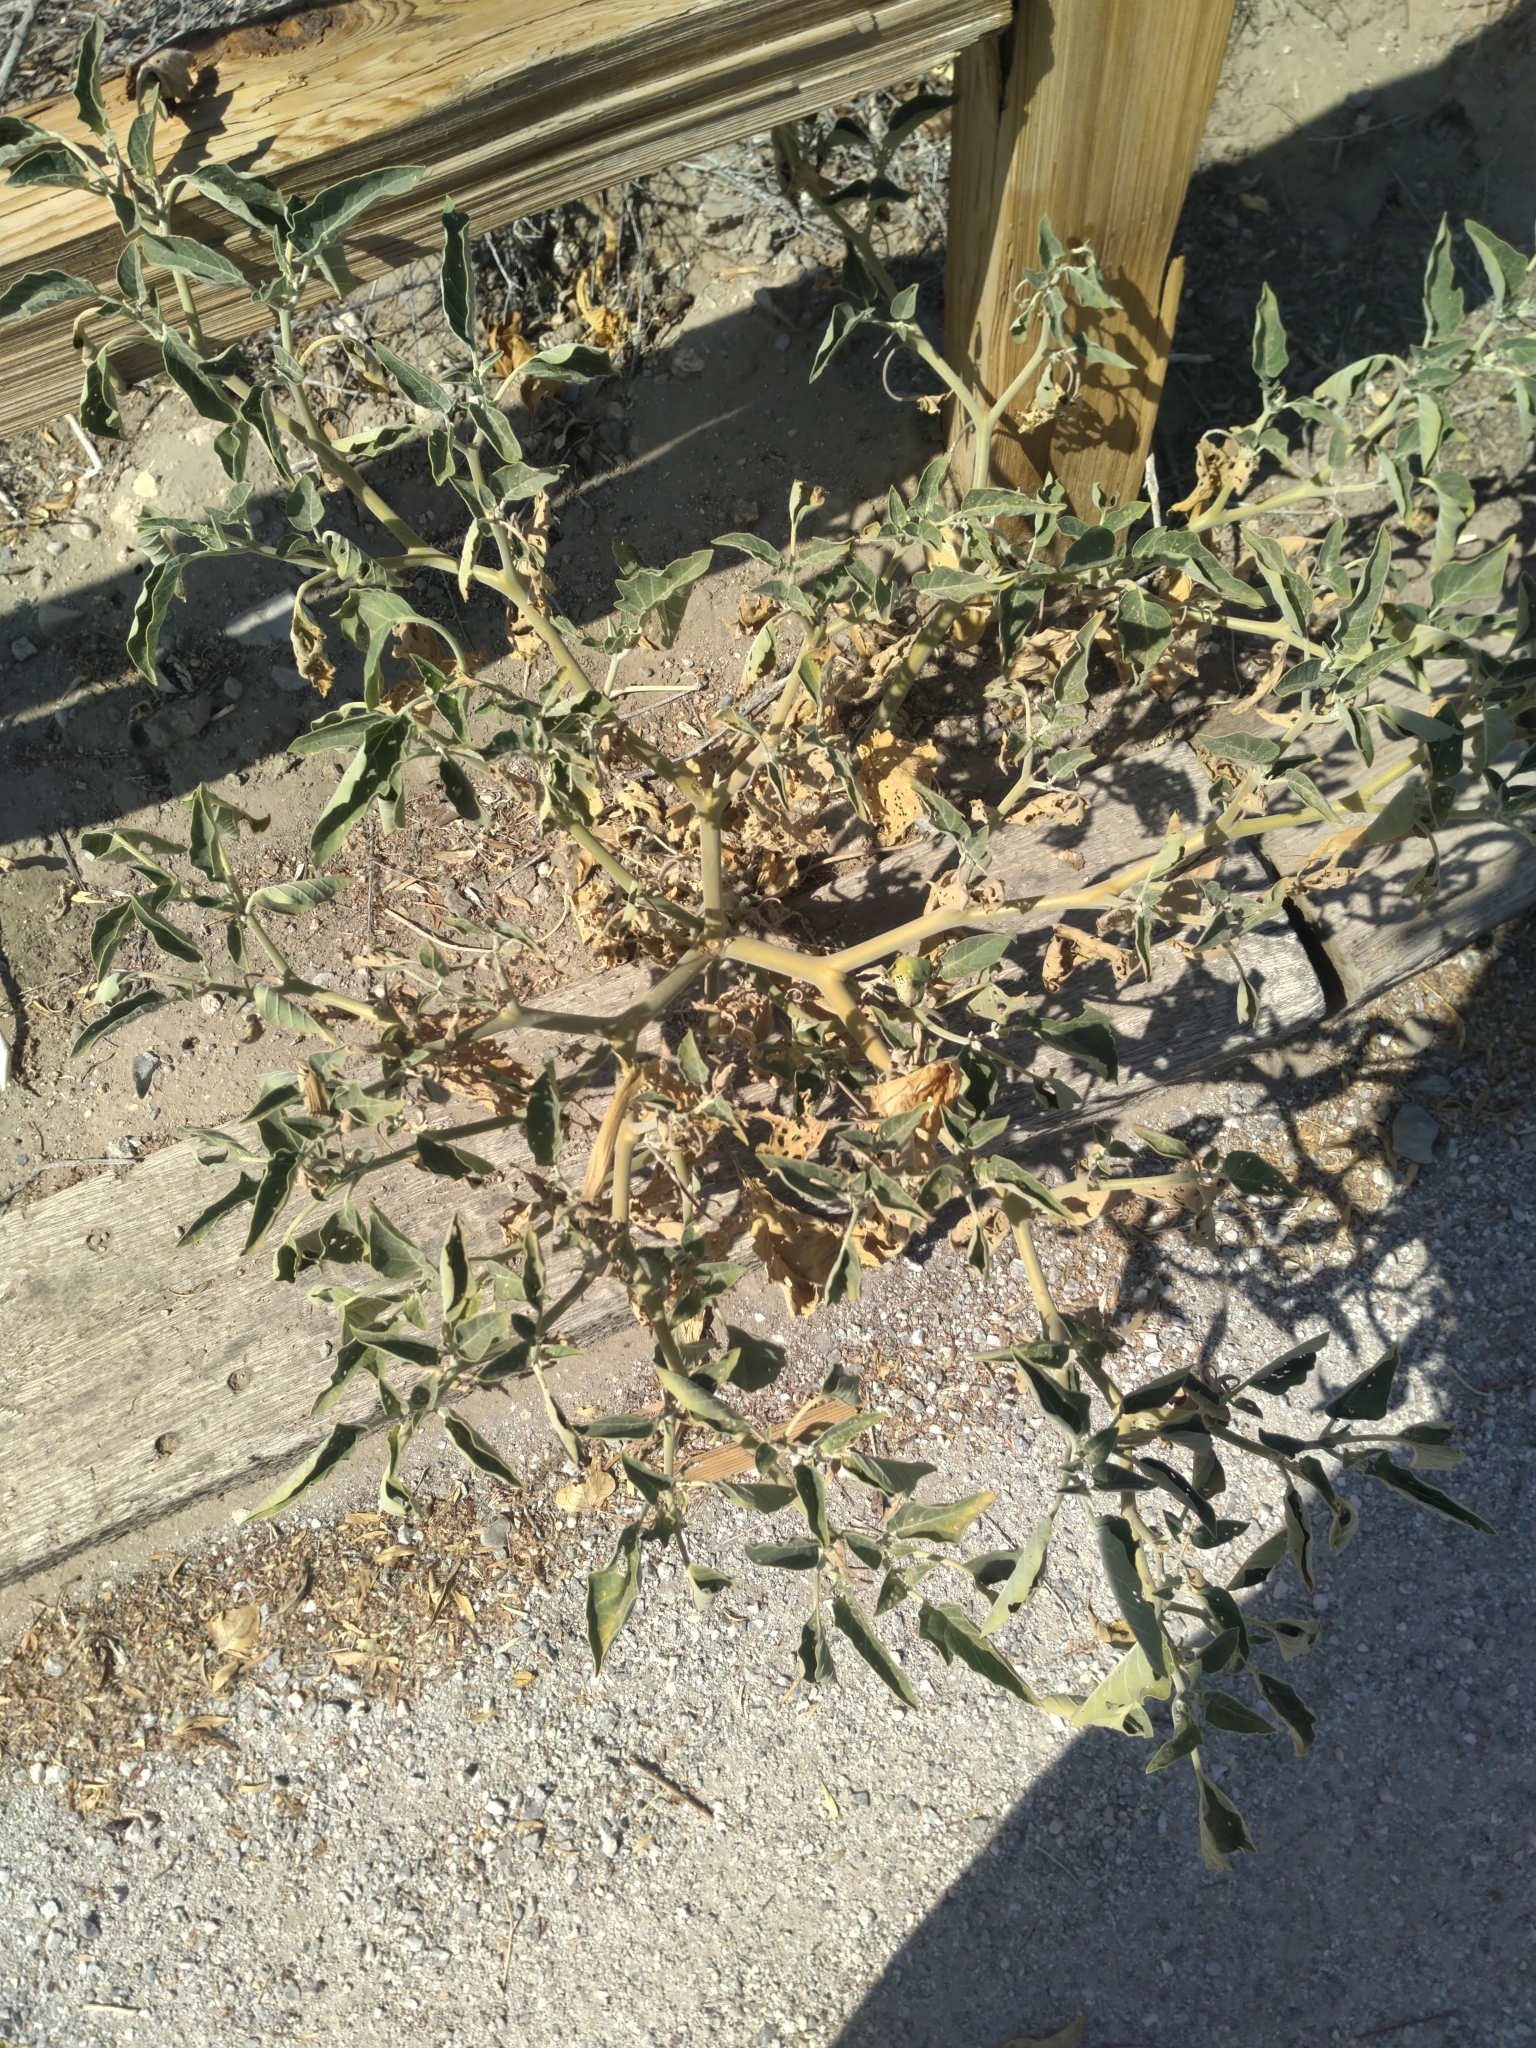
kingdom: Plantae
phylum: Tracheophyta
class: Magnoliopsida
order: Solanales
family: Solanaceae
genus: Datura
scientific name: Datura wrightii
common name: Sacred thorn-apple
